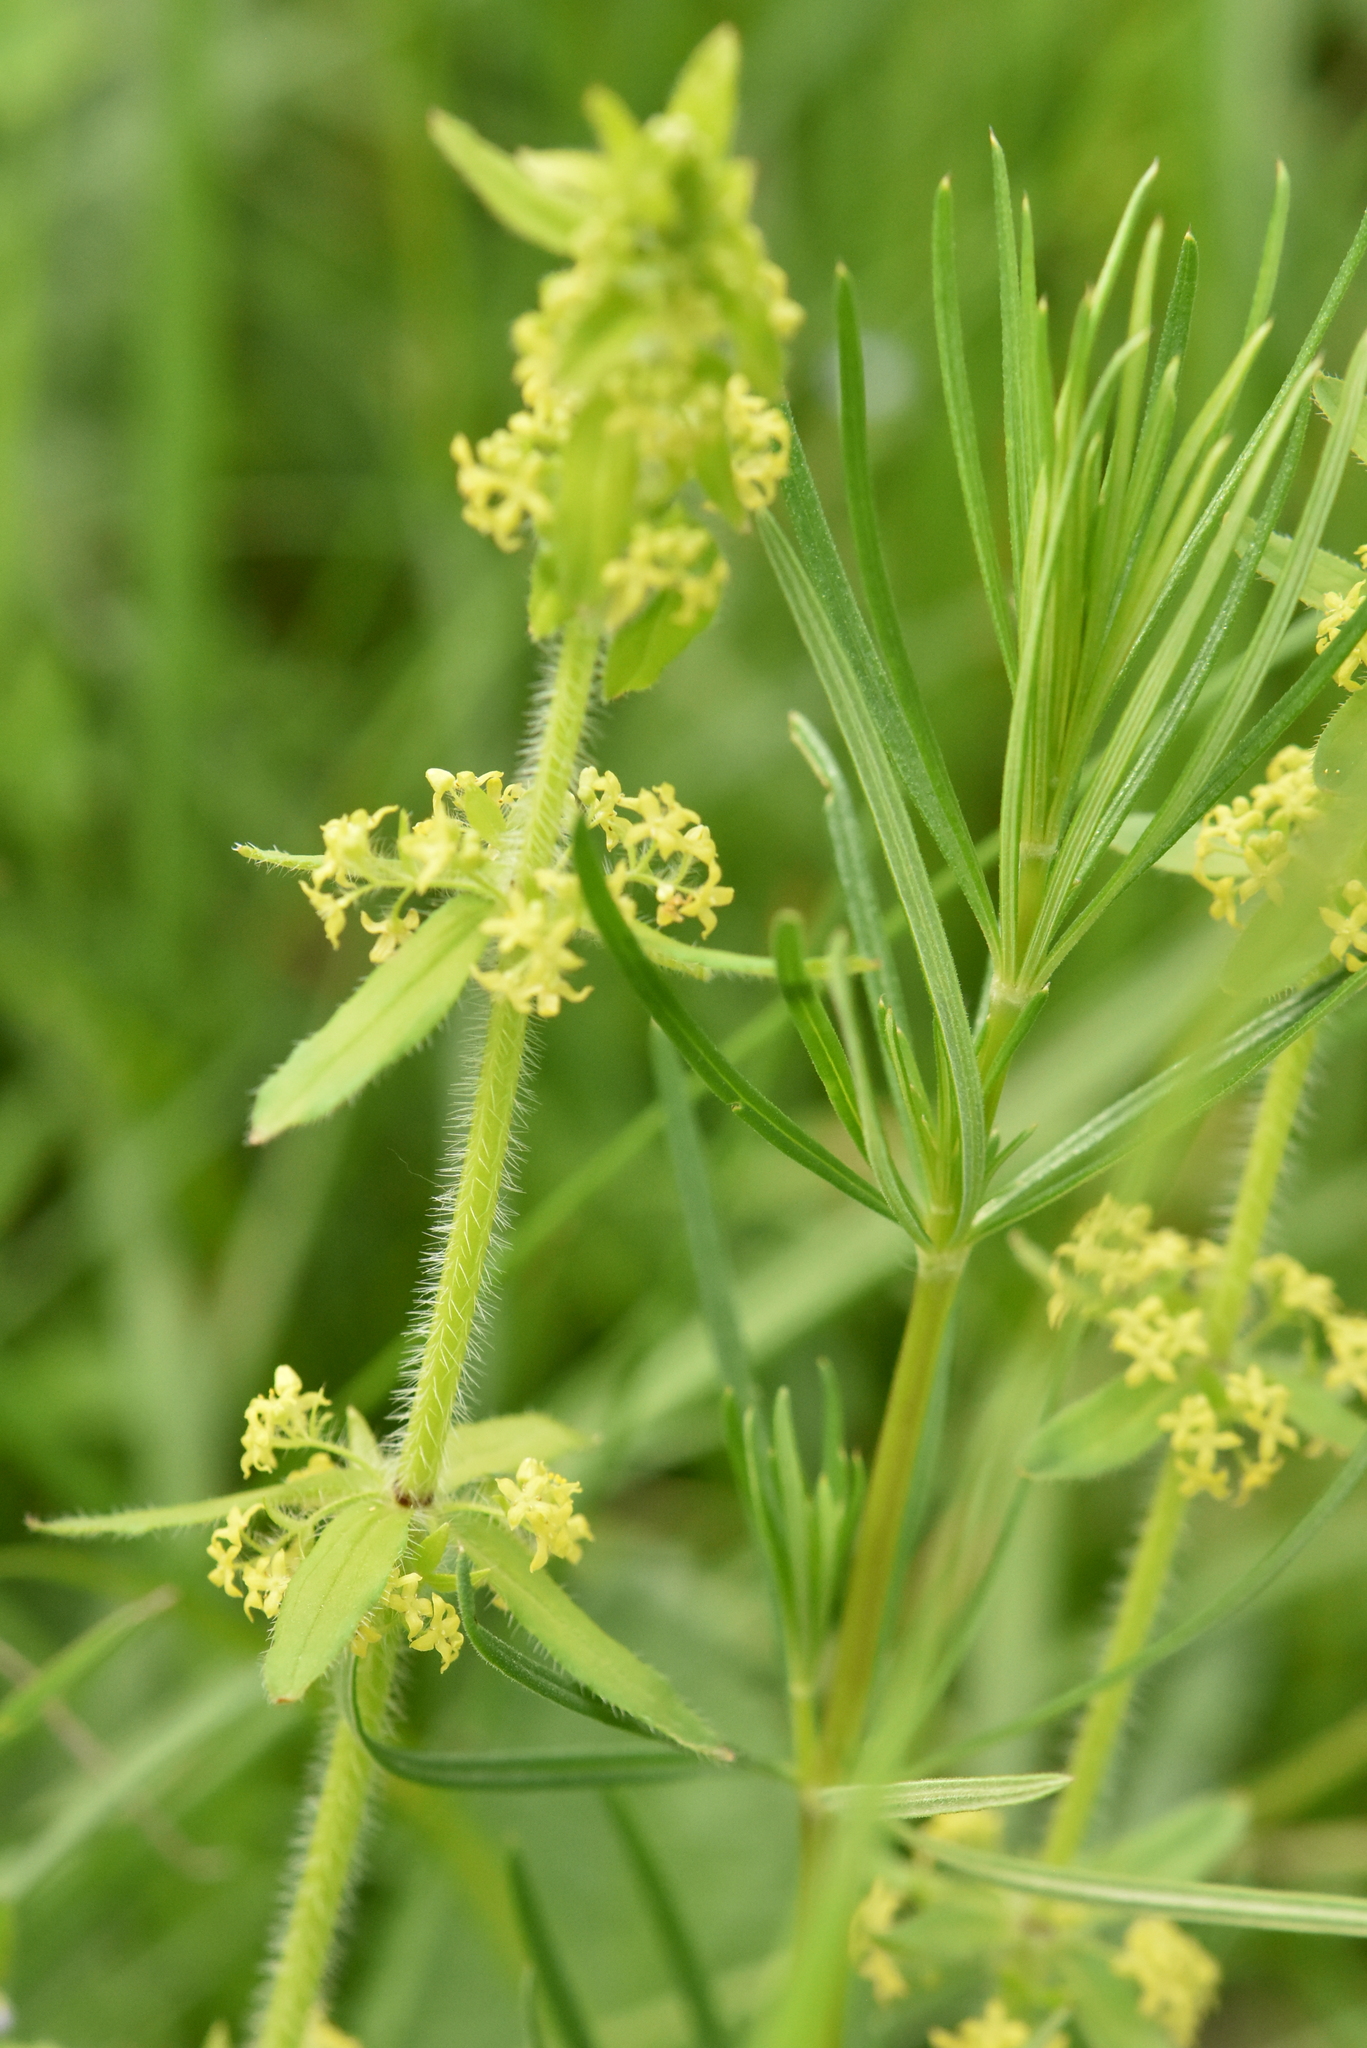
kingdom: Plantae
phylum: Tracheophyta
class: Magnoliopsida
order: Gentianales
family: Rubiaceae
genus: Cruciata
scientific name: Cruciata laevipes
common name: Crosswort
